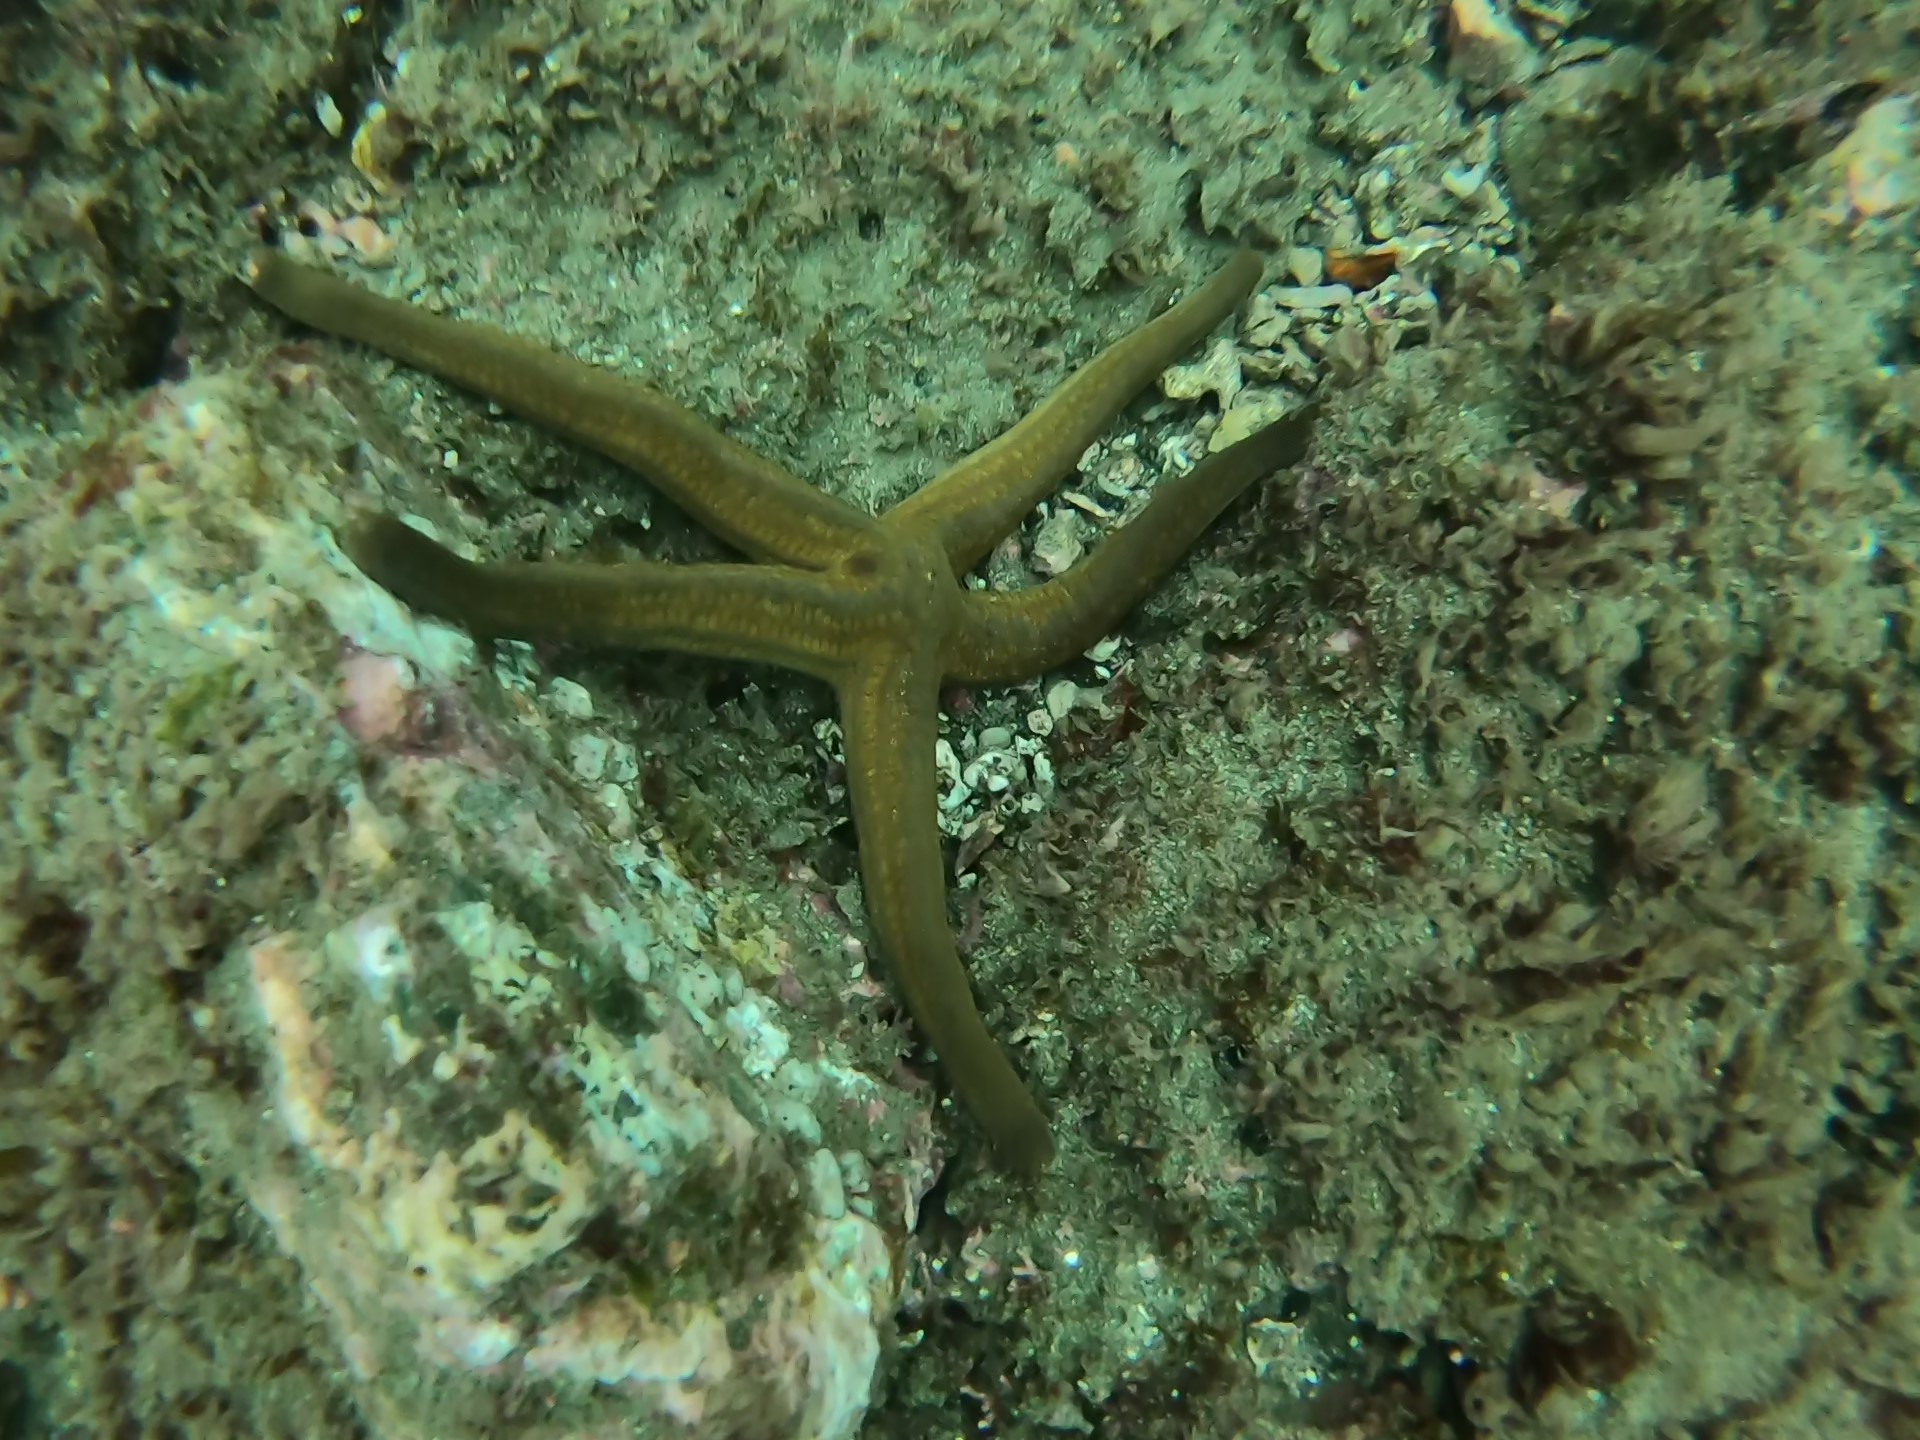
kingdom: Animalia
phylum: Echinodermata
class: Asteroidea
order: Valvatida
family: Ophidiasteridae
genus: Pharia
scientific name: Pharia pyramidata
